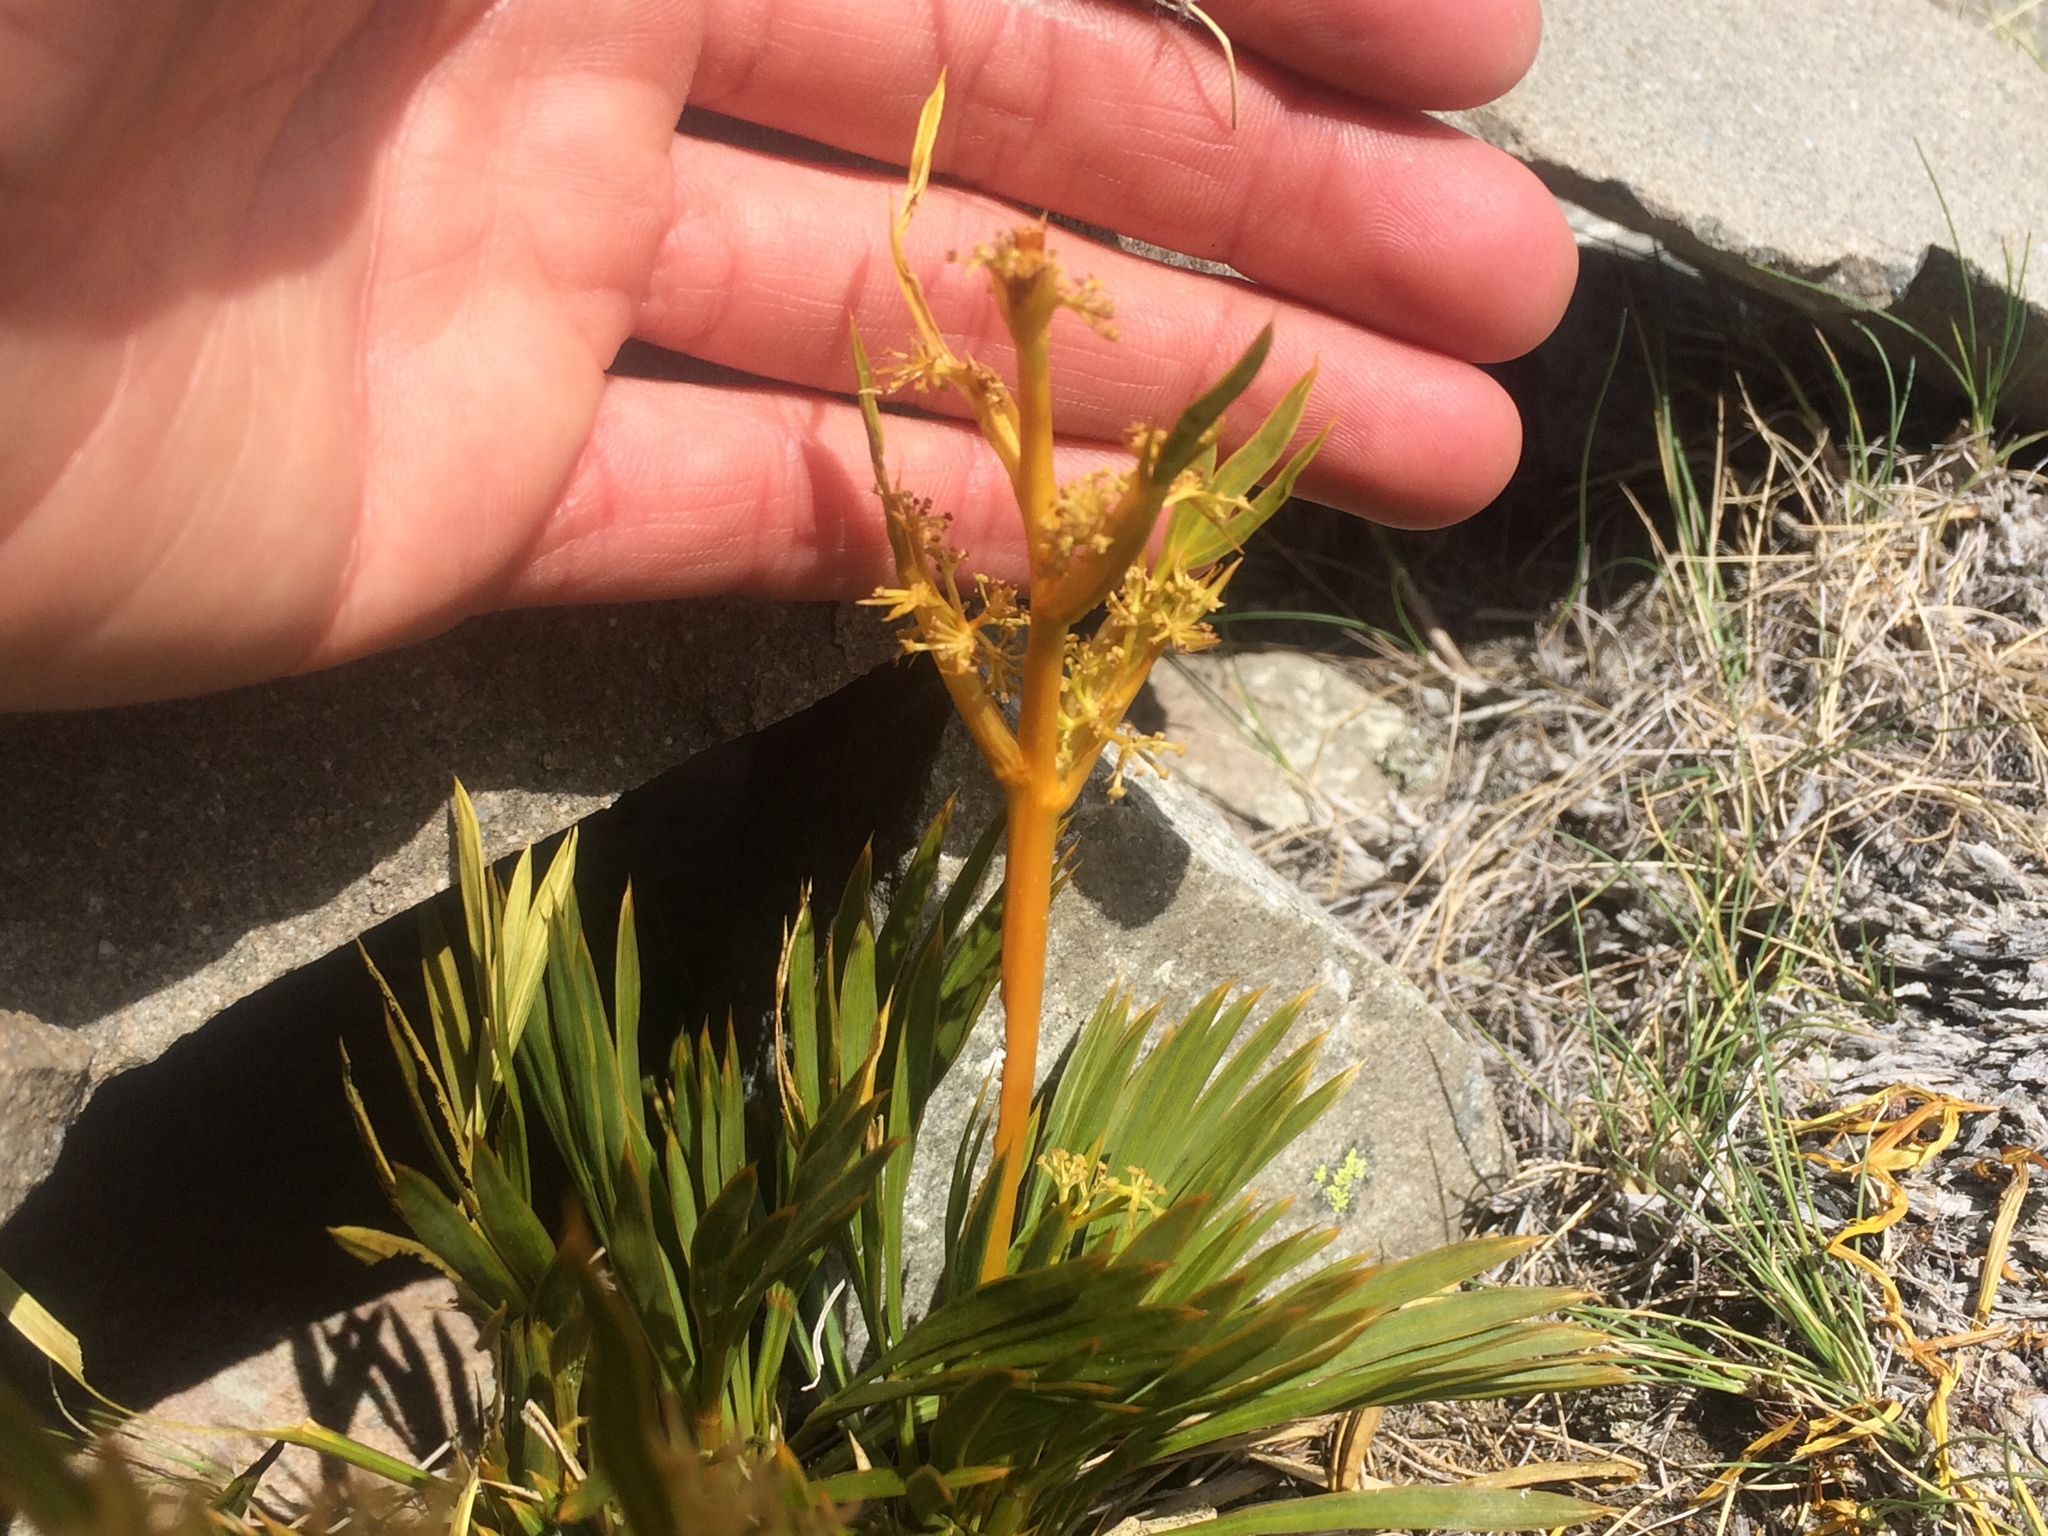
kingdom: Plantae
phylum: Tracheophyta
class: Magnoliopsida
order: Apiales
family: Apiaceae
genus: Aciphylla
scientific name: Aciphylla montana
